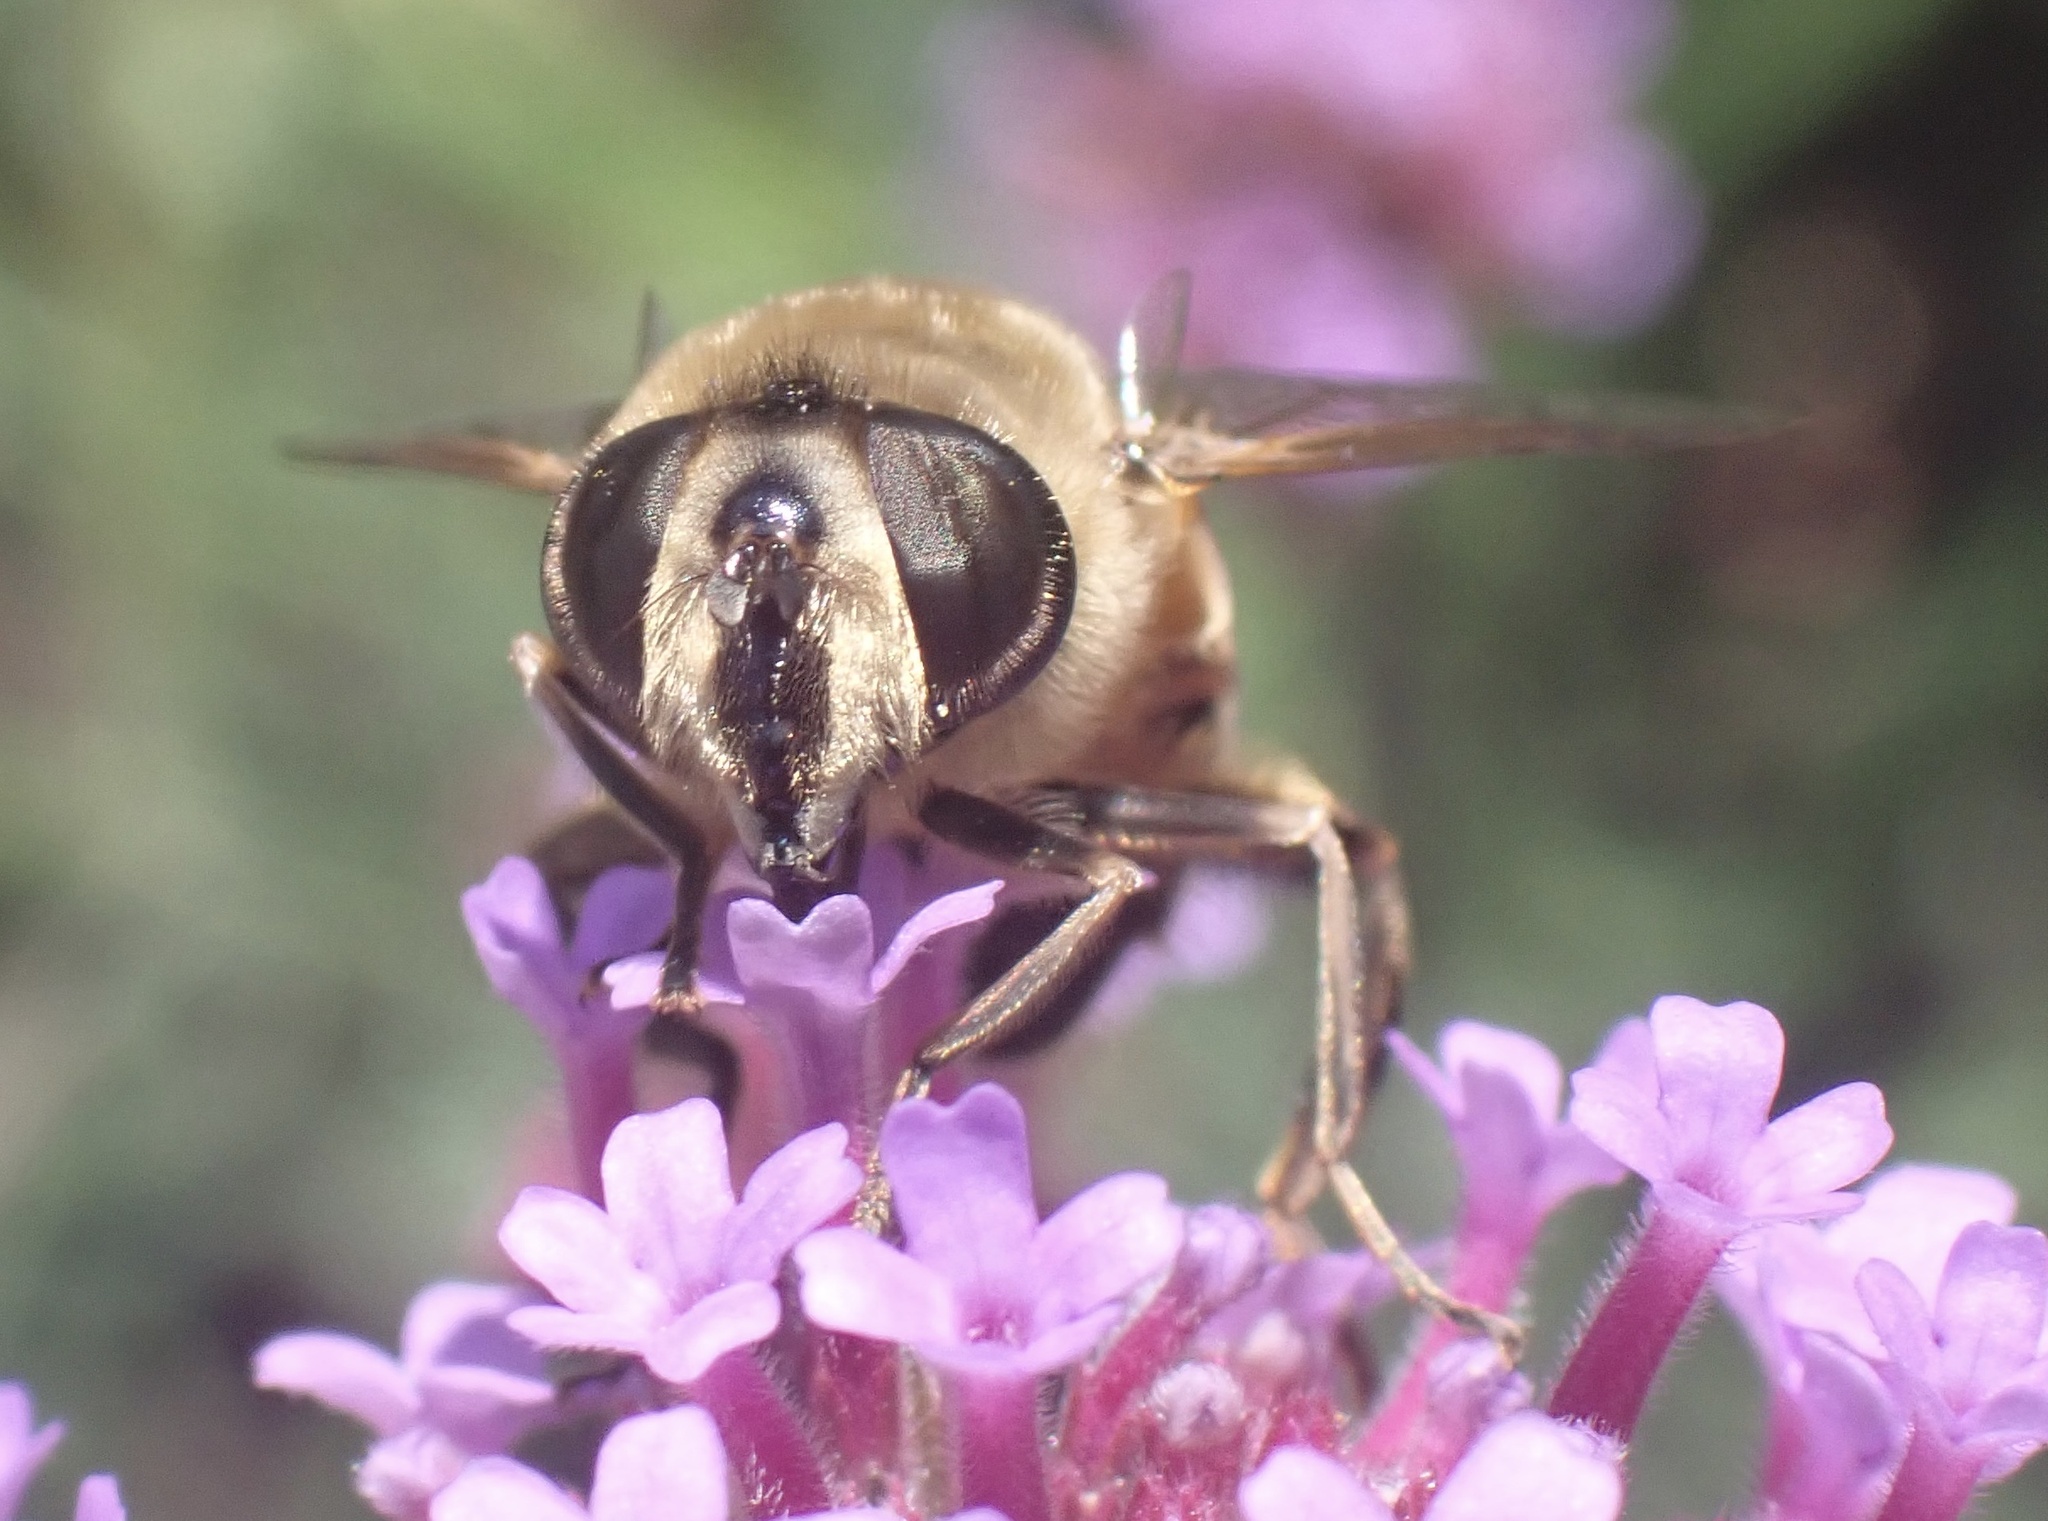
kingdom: Animalia
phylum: Arthropoda
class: Insecta
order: Diptera
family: Syrphidae
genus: Eristalis
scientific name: Eristalis tenax
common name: Drone fly
